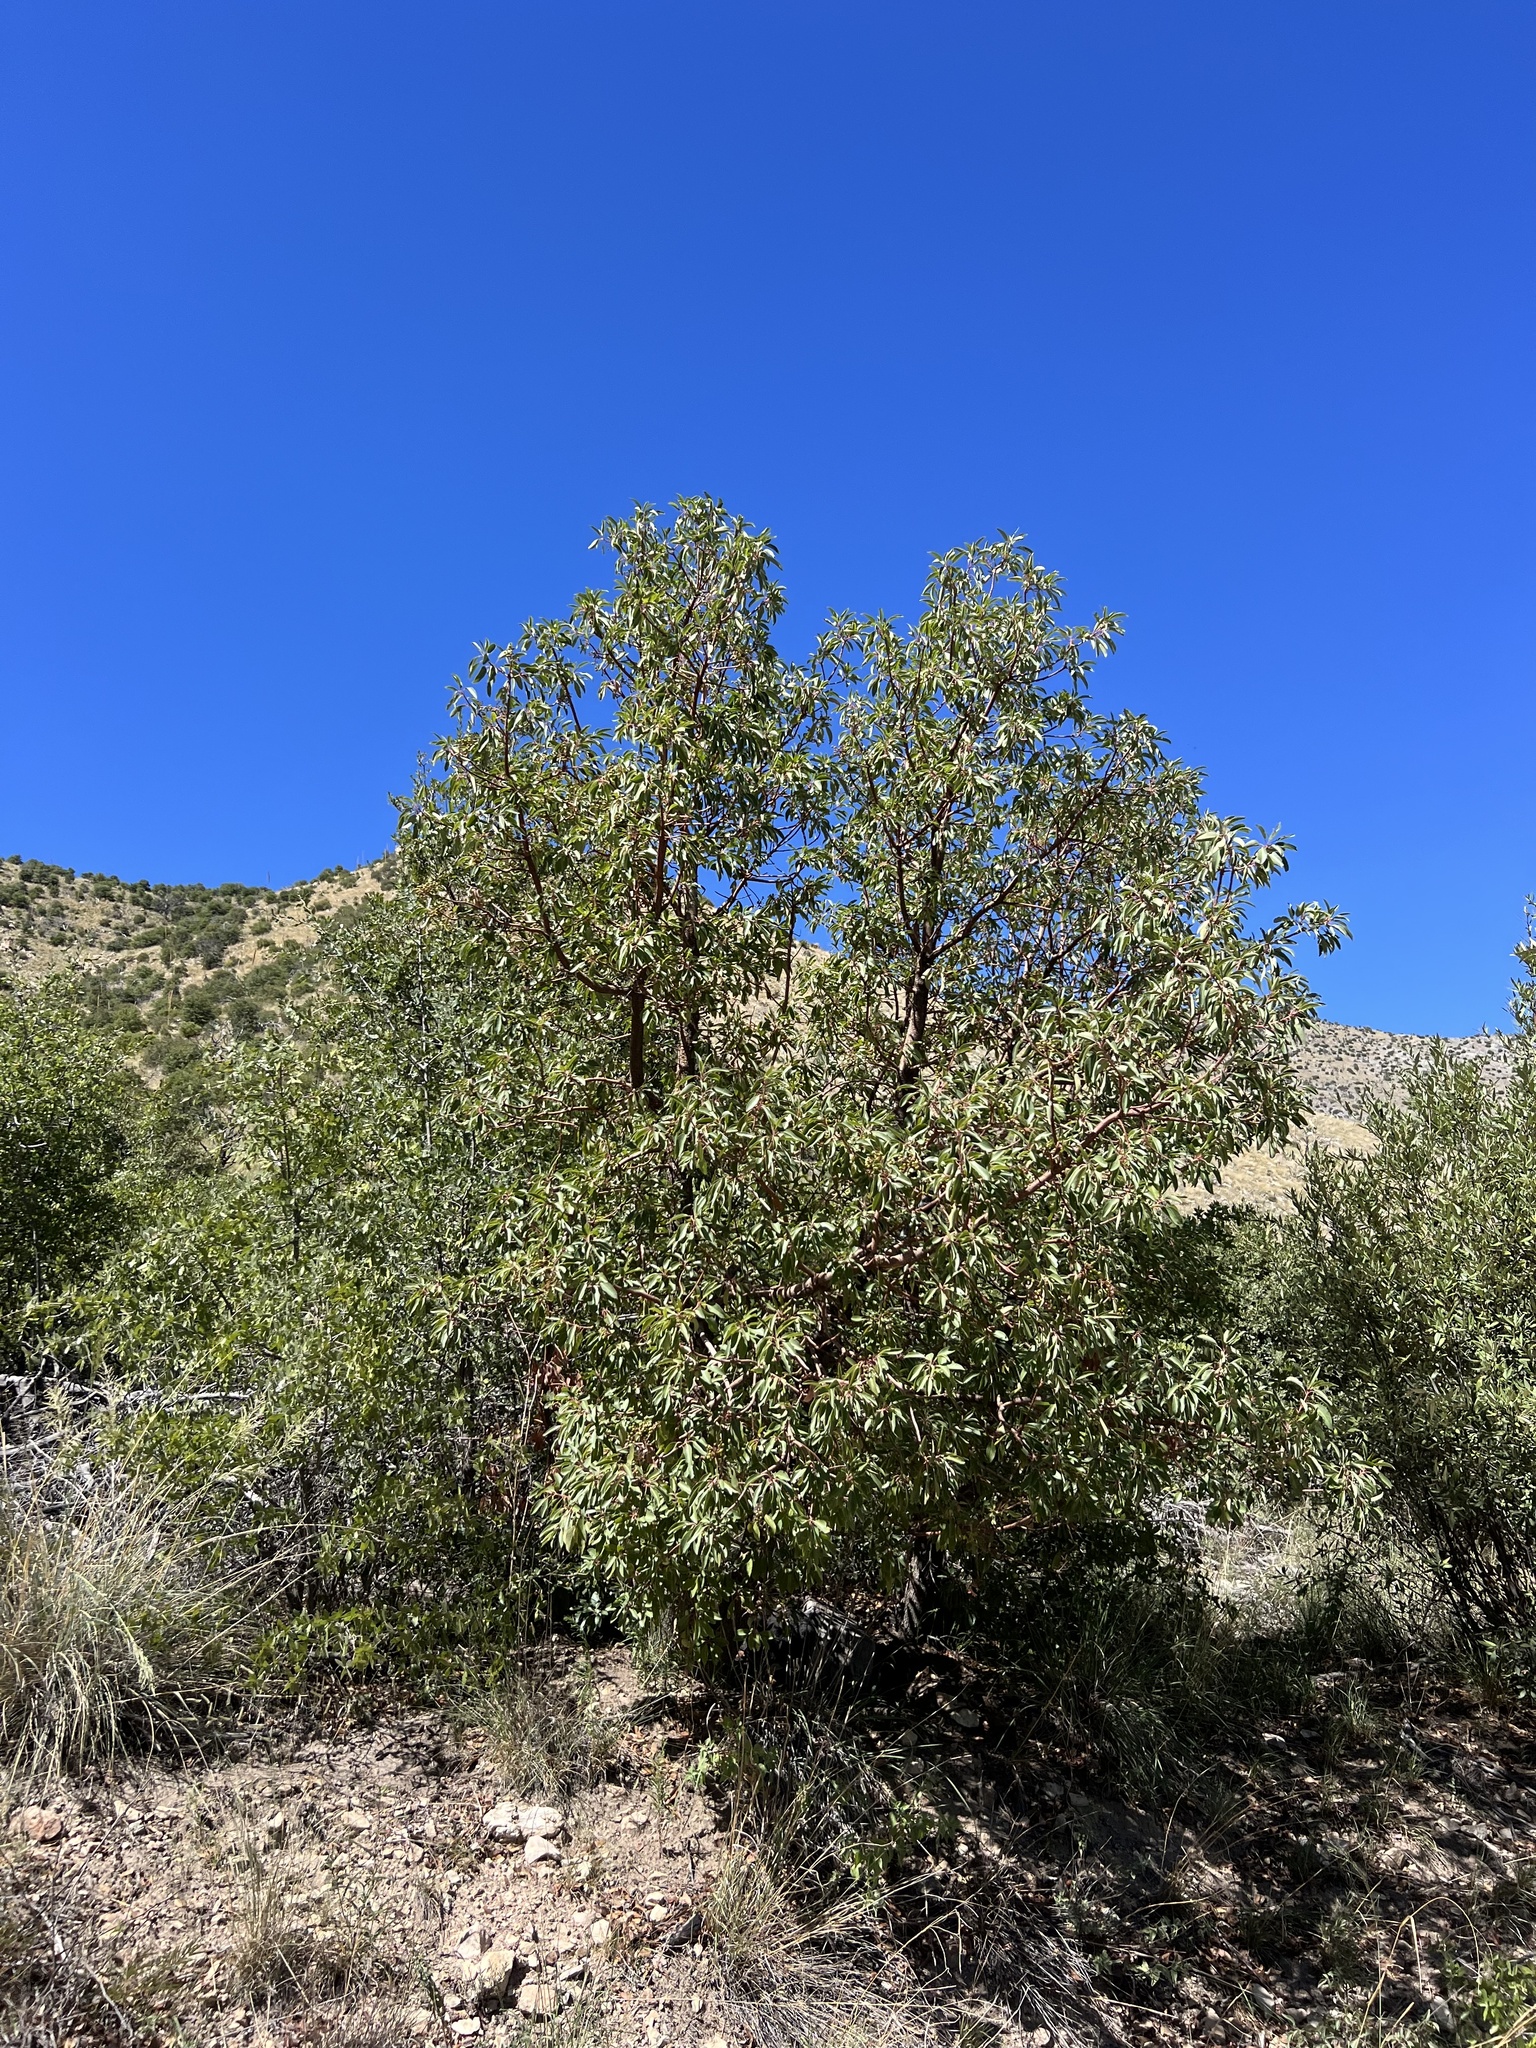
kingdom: Plantae
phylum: Tracheophyta
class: Magnoliopsida
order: Ericales
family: Ericaceae
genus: Arbutus
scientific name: Arbutus arizonica
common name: Arizona madrone
